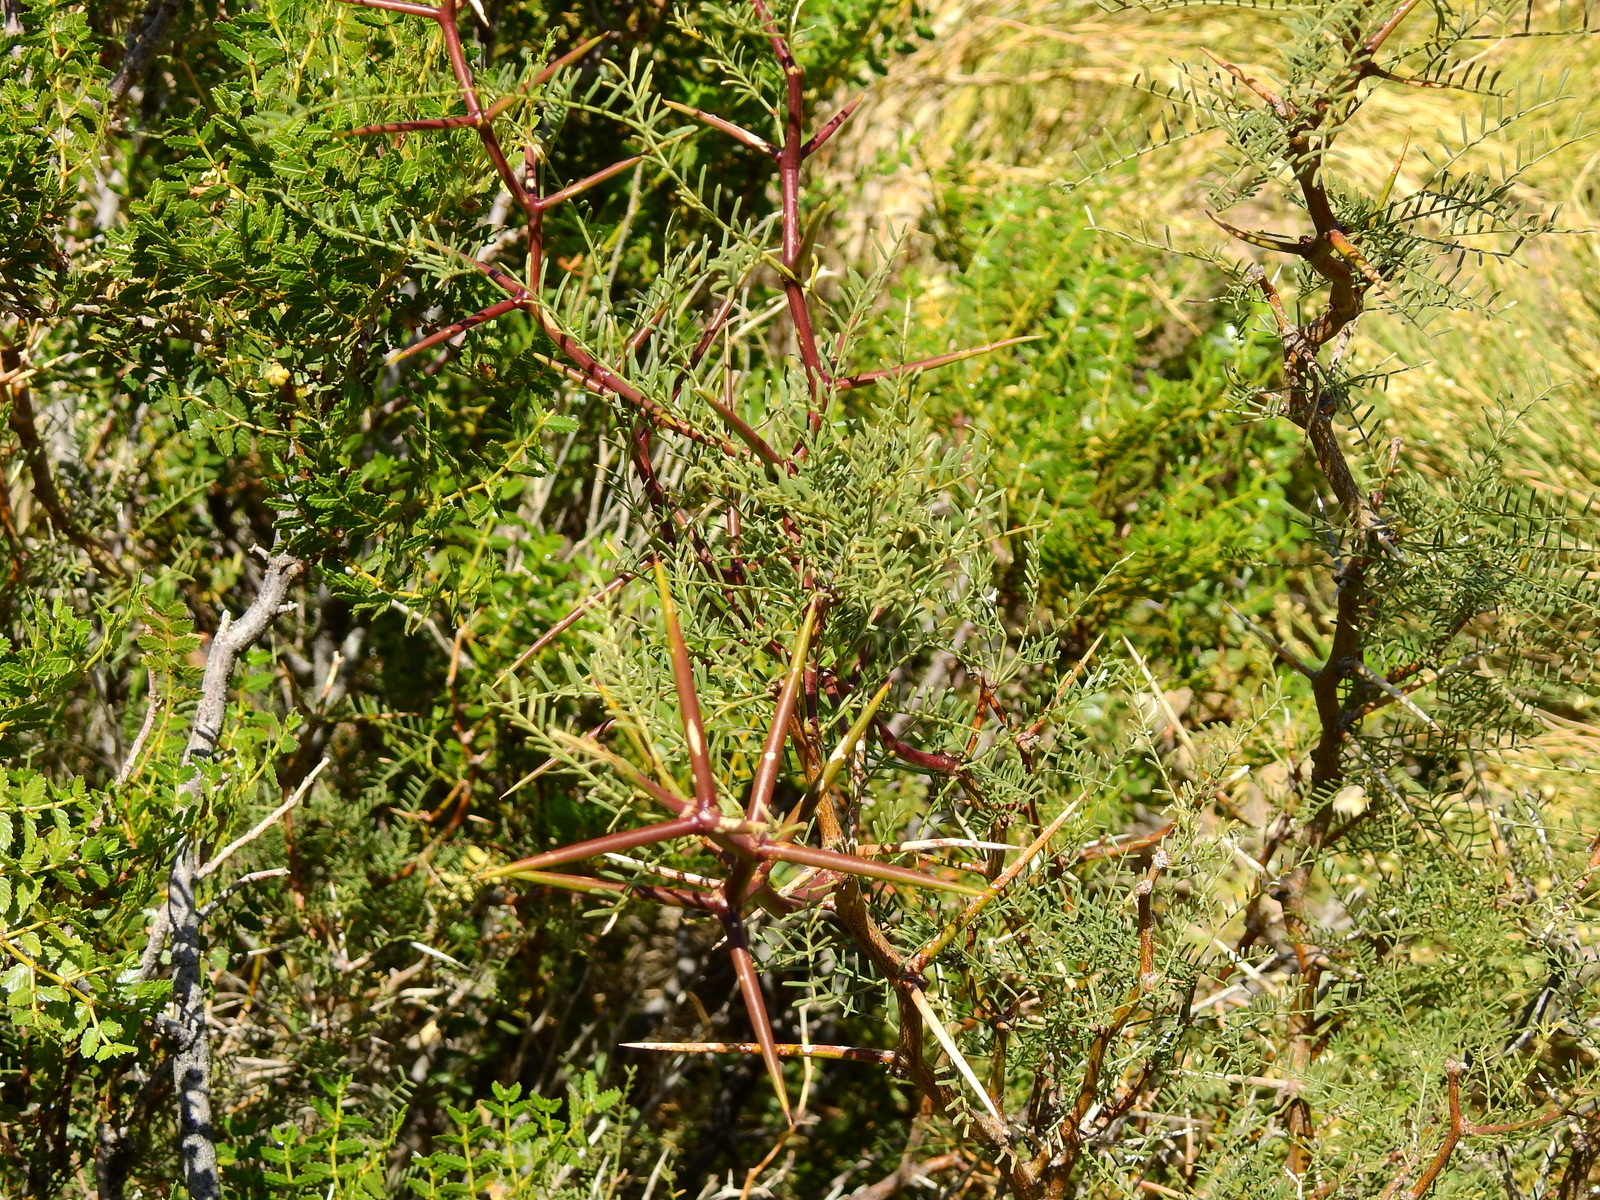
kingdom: Plantae
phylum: Tracheophyta
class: Magnoliopsida
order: Fabales
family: Fabaceae
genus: Prosopis
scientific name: Prosopis flexuosa
